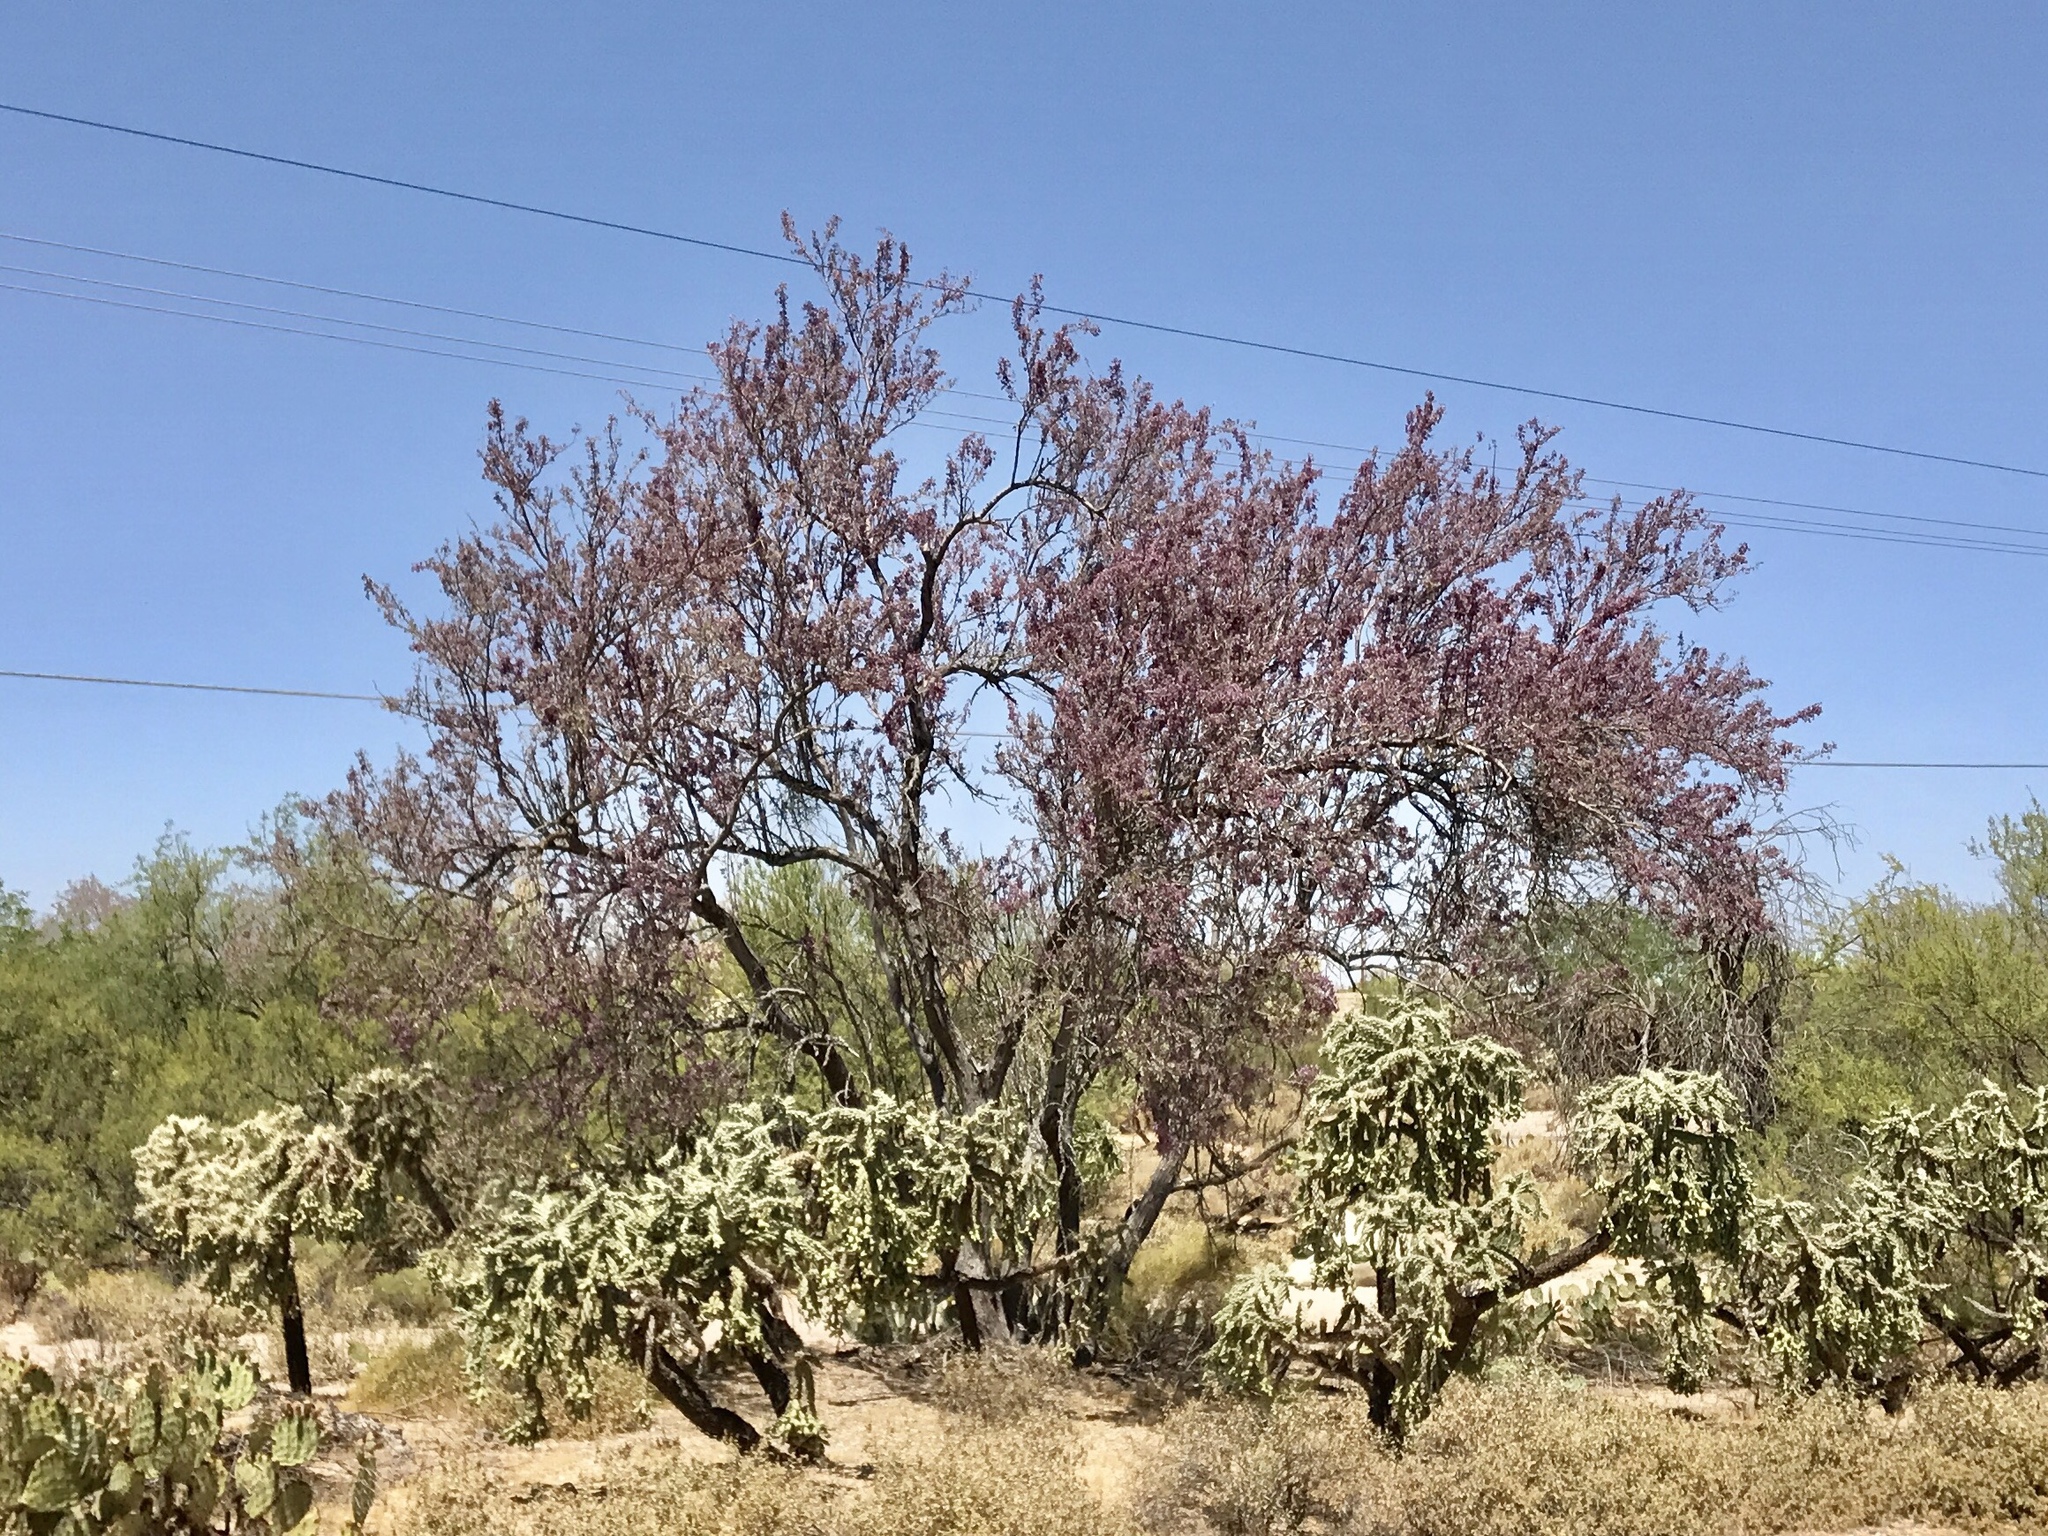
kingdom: Plantae
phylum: Tracheophyta
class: Magnoliopsida
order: Fabales
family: Fabaceae
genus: Olneya
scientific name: Olneya tesota
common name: Desert ironwood
